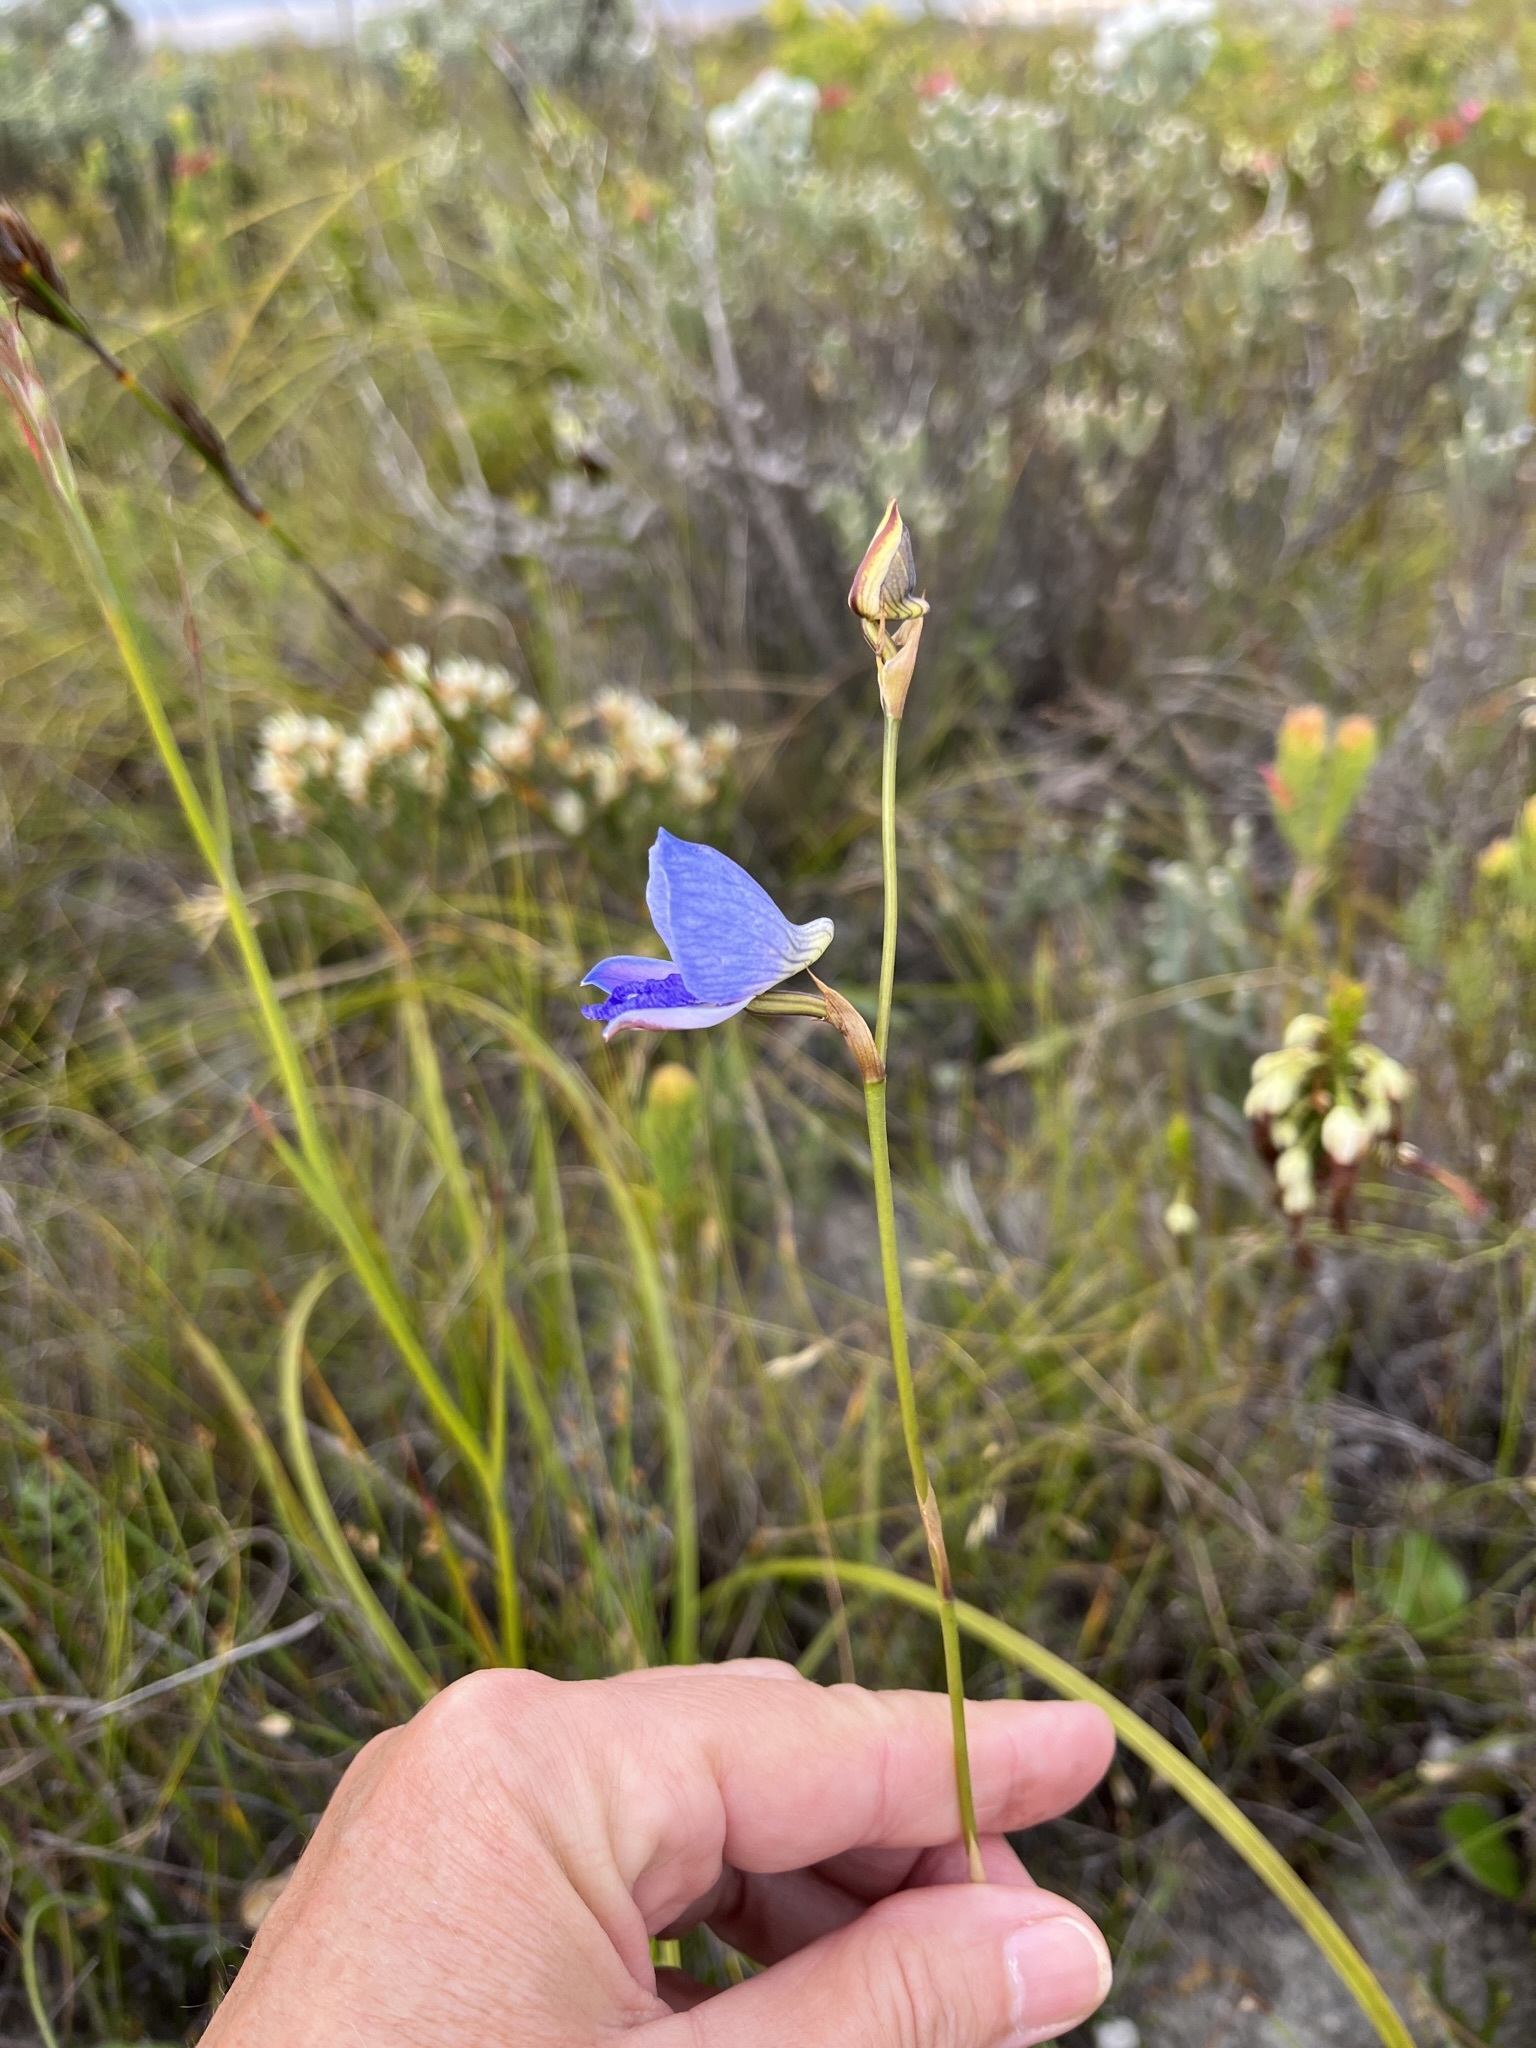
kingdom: Plantae
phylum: Tracheophyta
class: Liliopsida
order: Asparagales
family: Orchidaceae
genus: Disa
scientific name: Disa purpurascens
